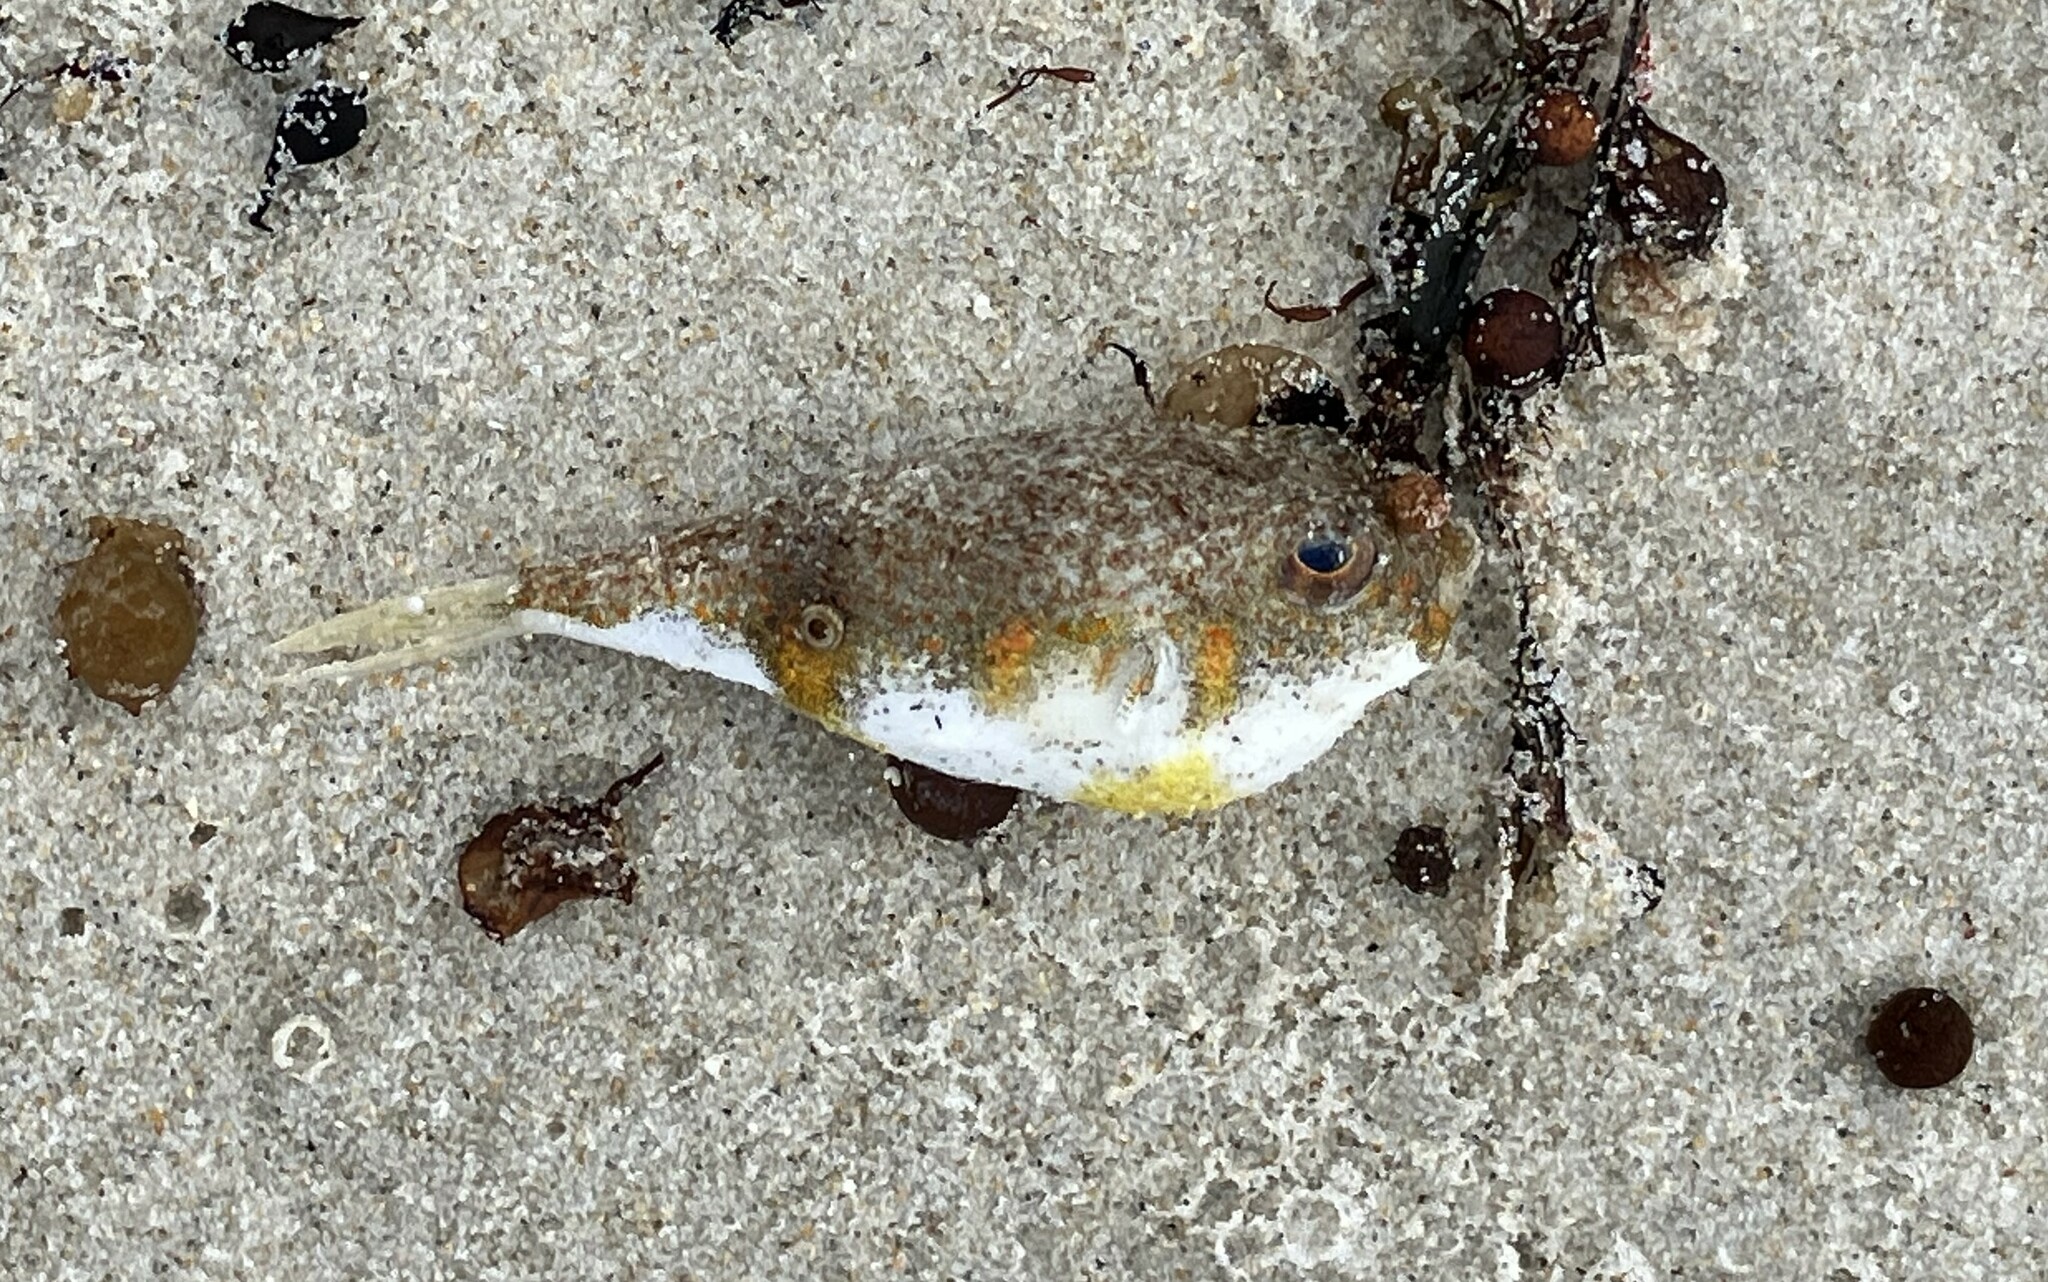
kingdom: Animalia
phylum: Chordata
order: Tetraodontiformes
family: Tetraodontidae
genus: Polyspina
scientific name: Polyspina piosae
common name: Orange-barred pufferfish
